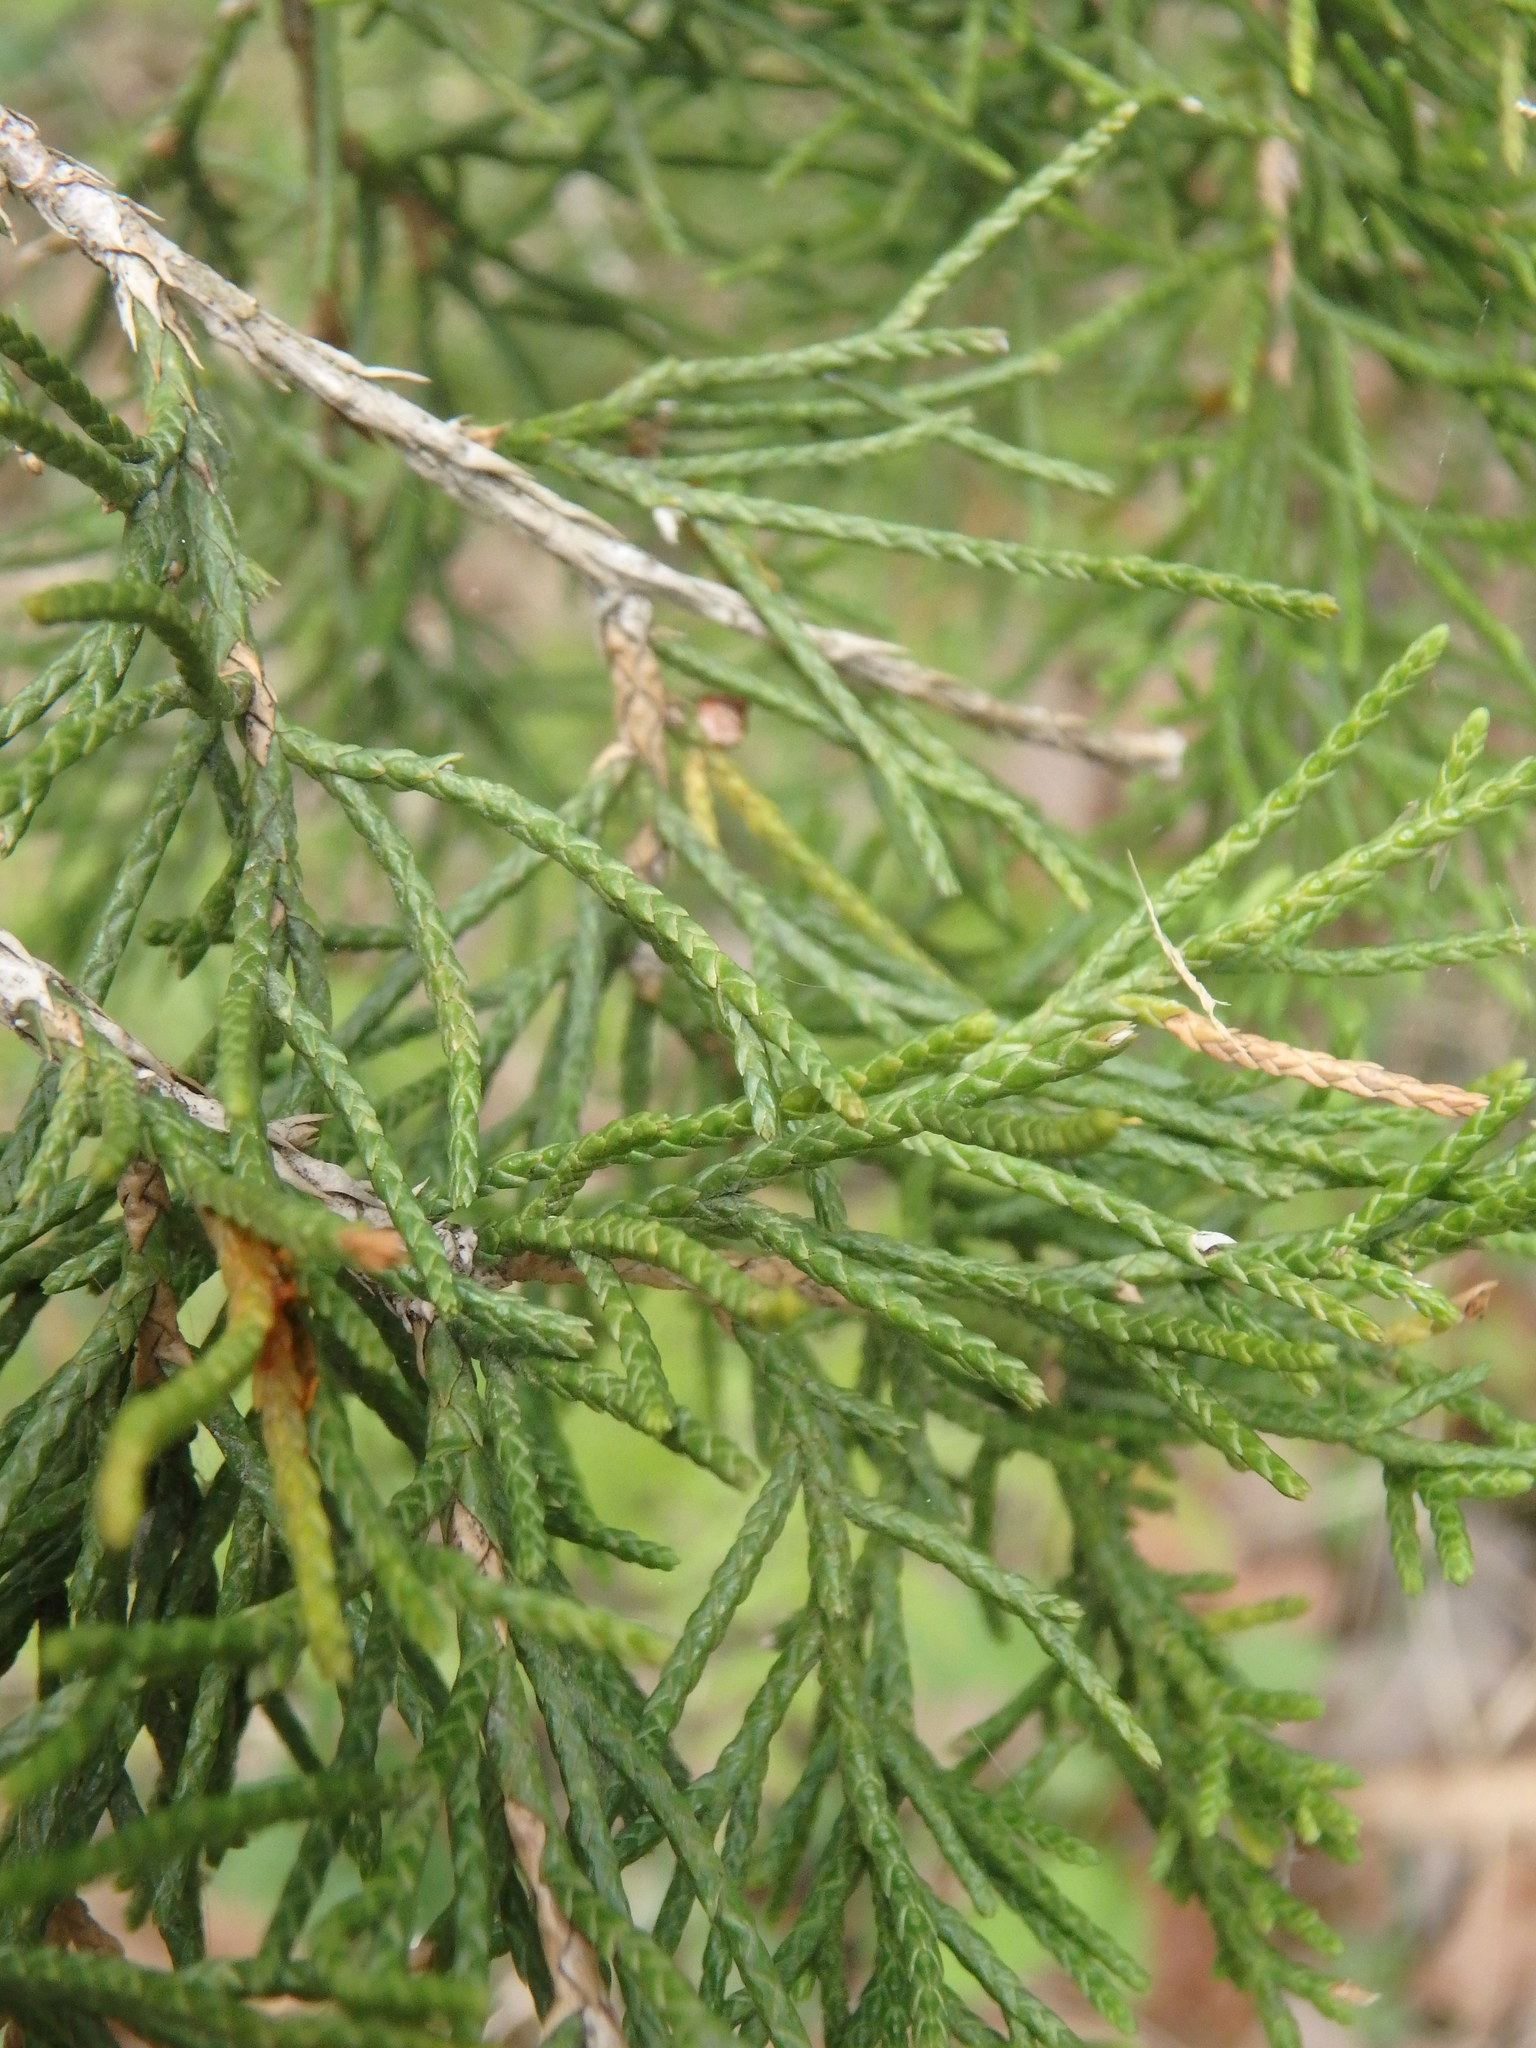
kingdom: Plantae
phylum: Tracheophyta
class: Pinopsida
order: Pinales
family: Cupressaceae
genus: Juniperus
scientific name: Juniperus virginiana
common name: Red juniper
